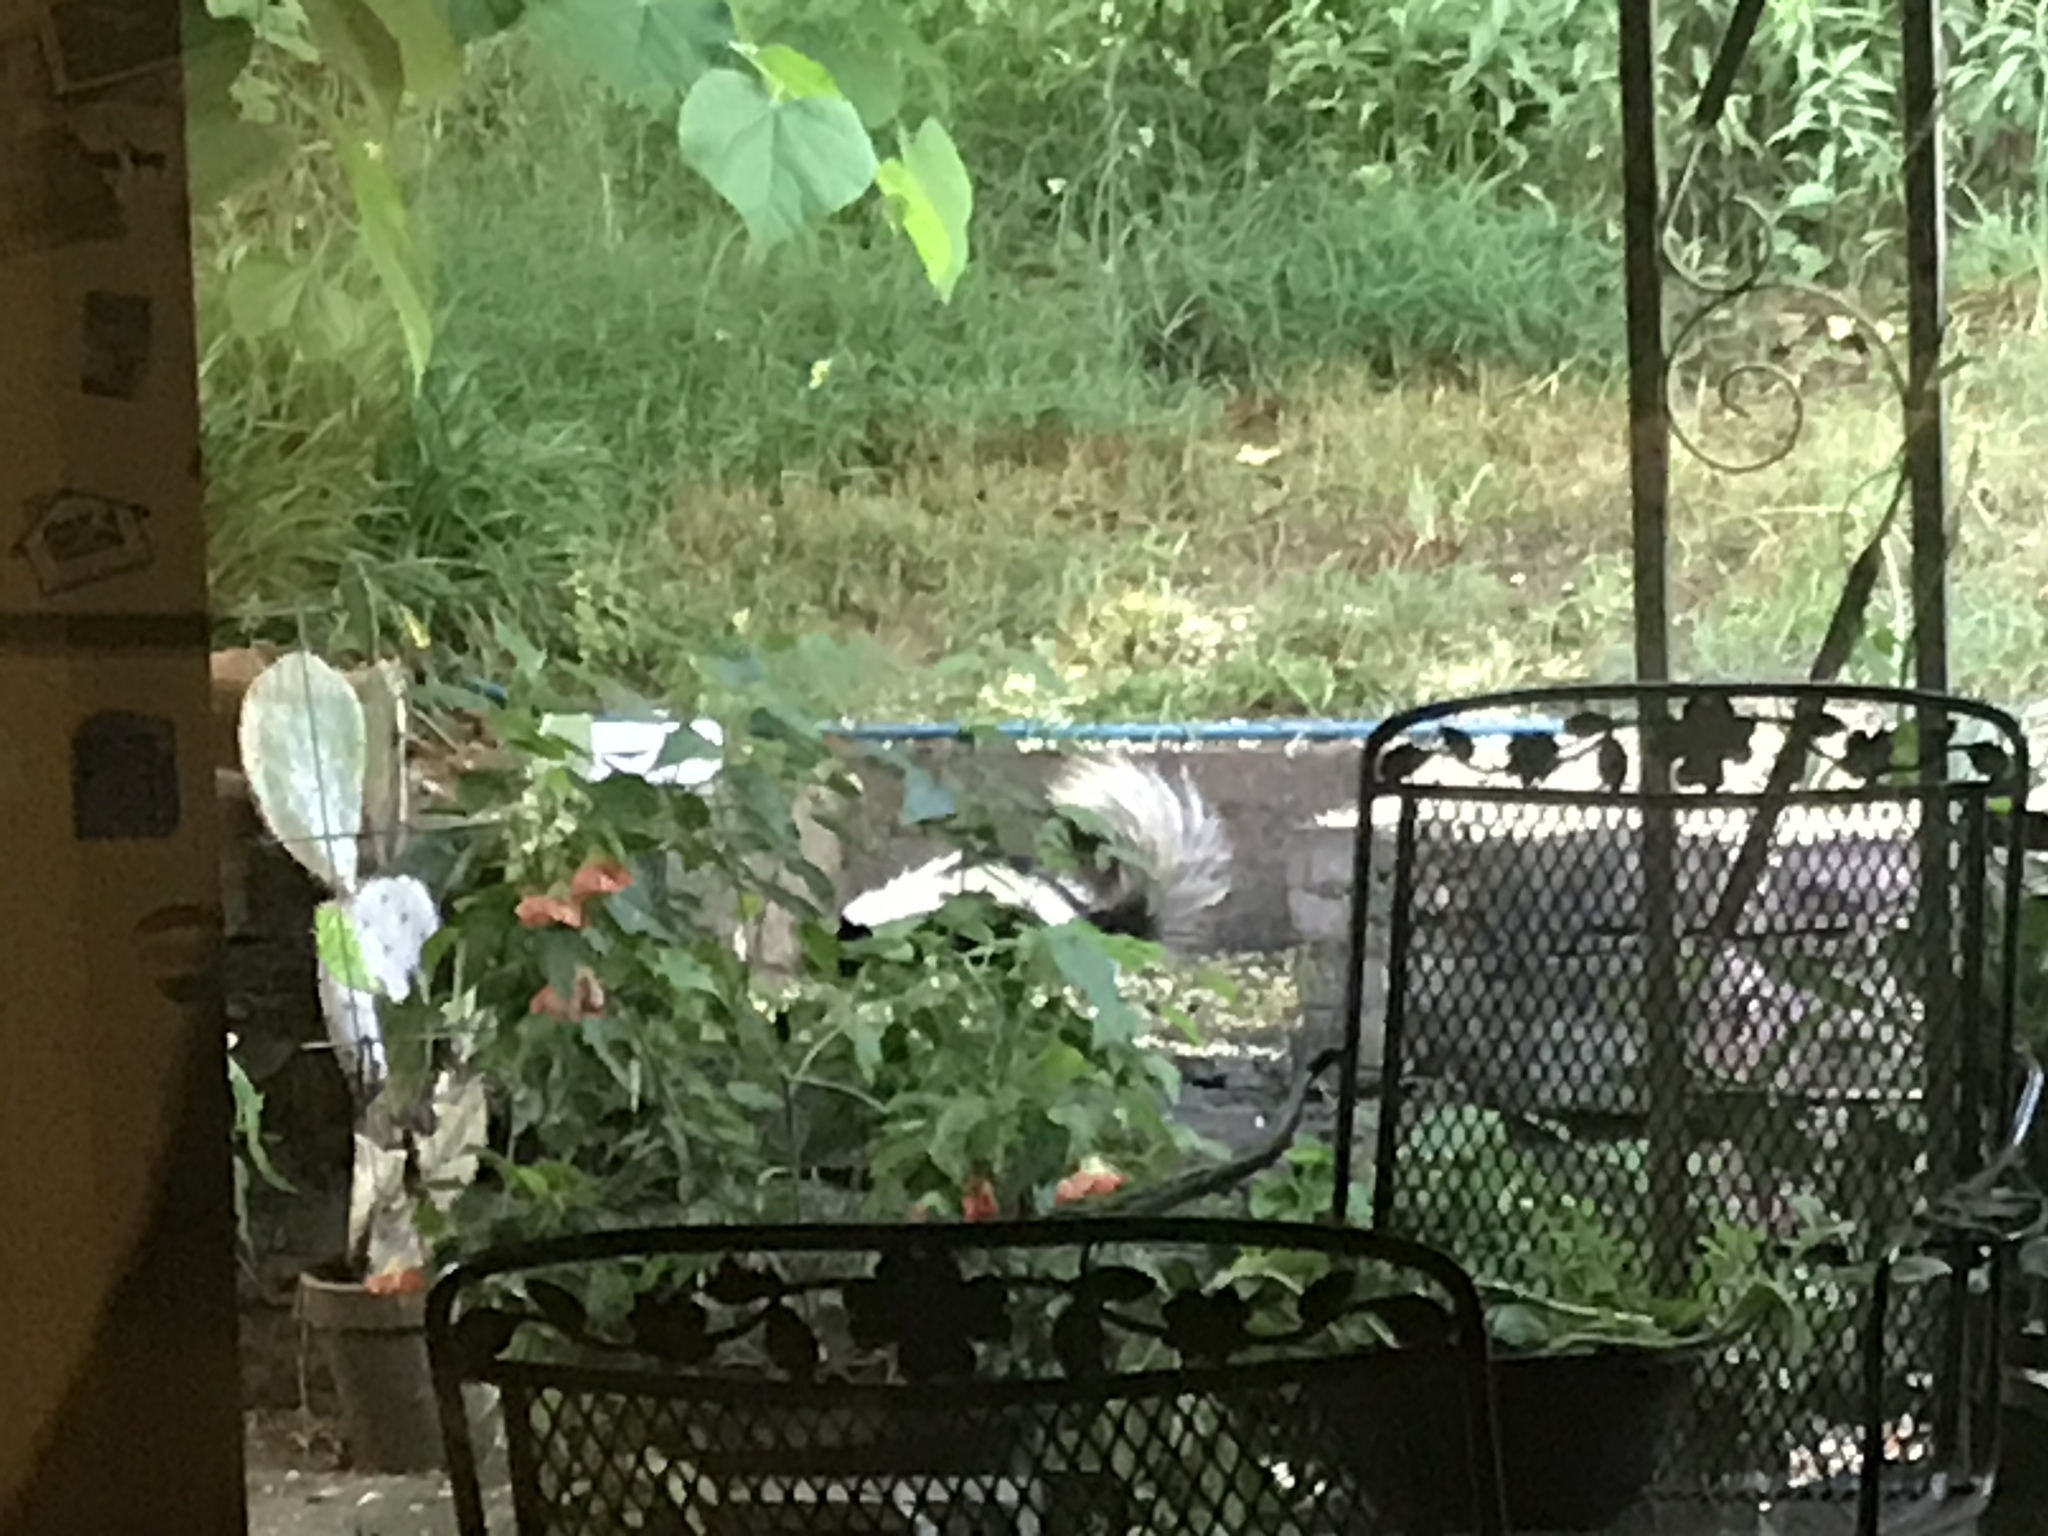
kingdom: Animalia
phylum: Chordata
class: Mammalia
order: Carnivora
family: Mephitidae
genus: Mephitis
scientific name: Mephitis mephitis
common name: Striped skunk
